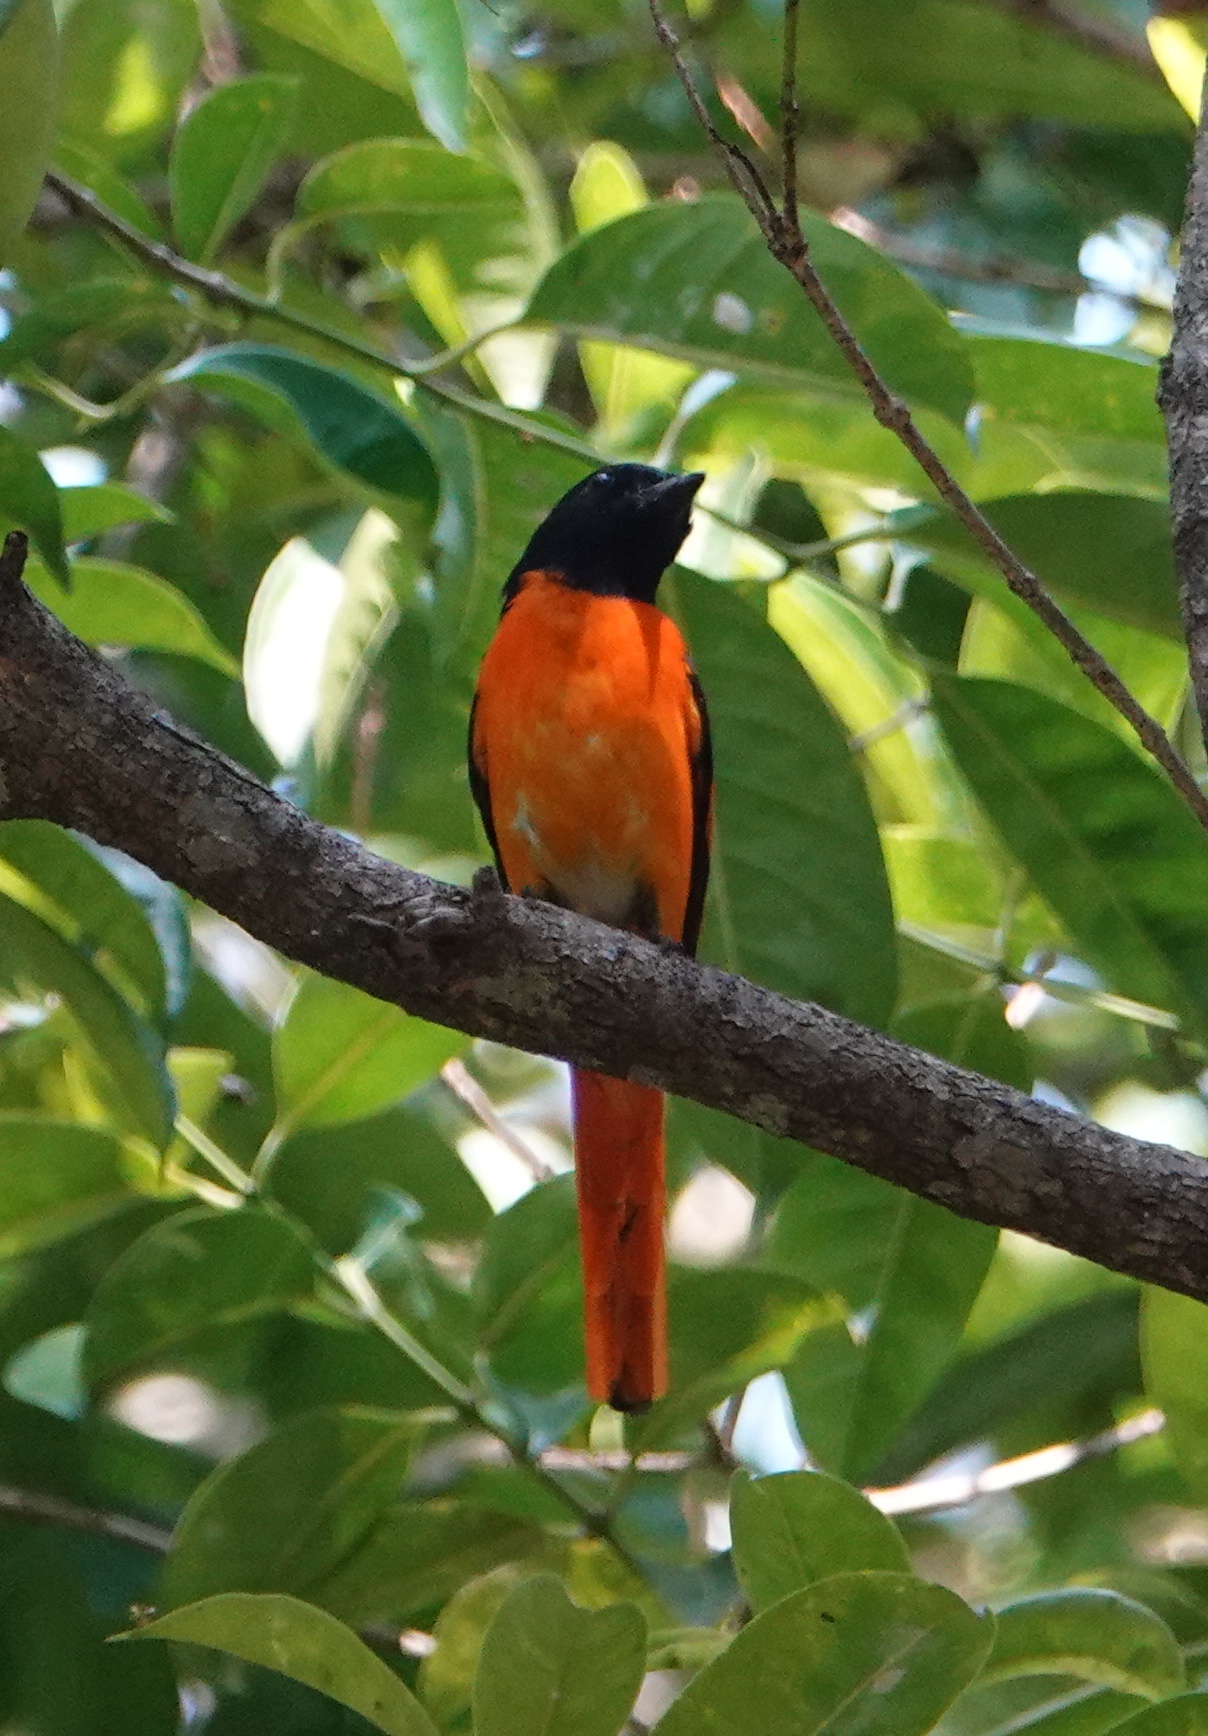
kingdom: Animalia
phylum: Chordata
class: Aves
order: Passeriformes
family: Campephagidae
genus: Pericrocotus
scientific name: Pericrocotus flammeus
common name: Orange minivet
